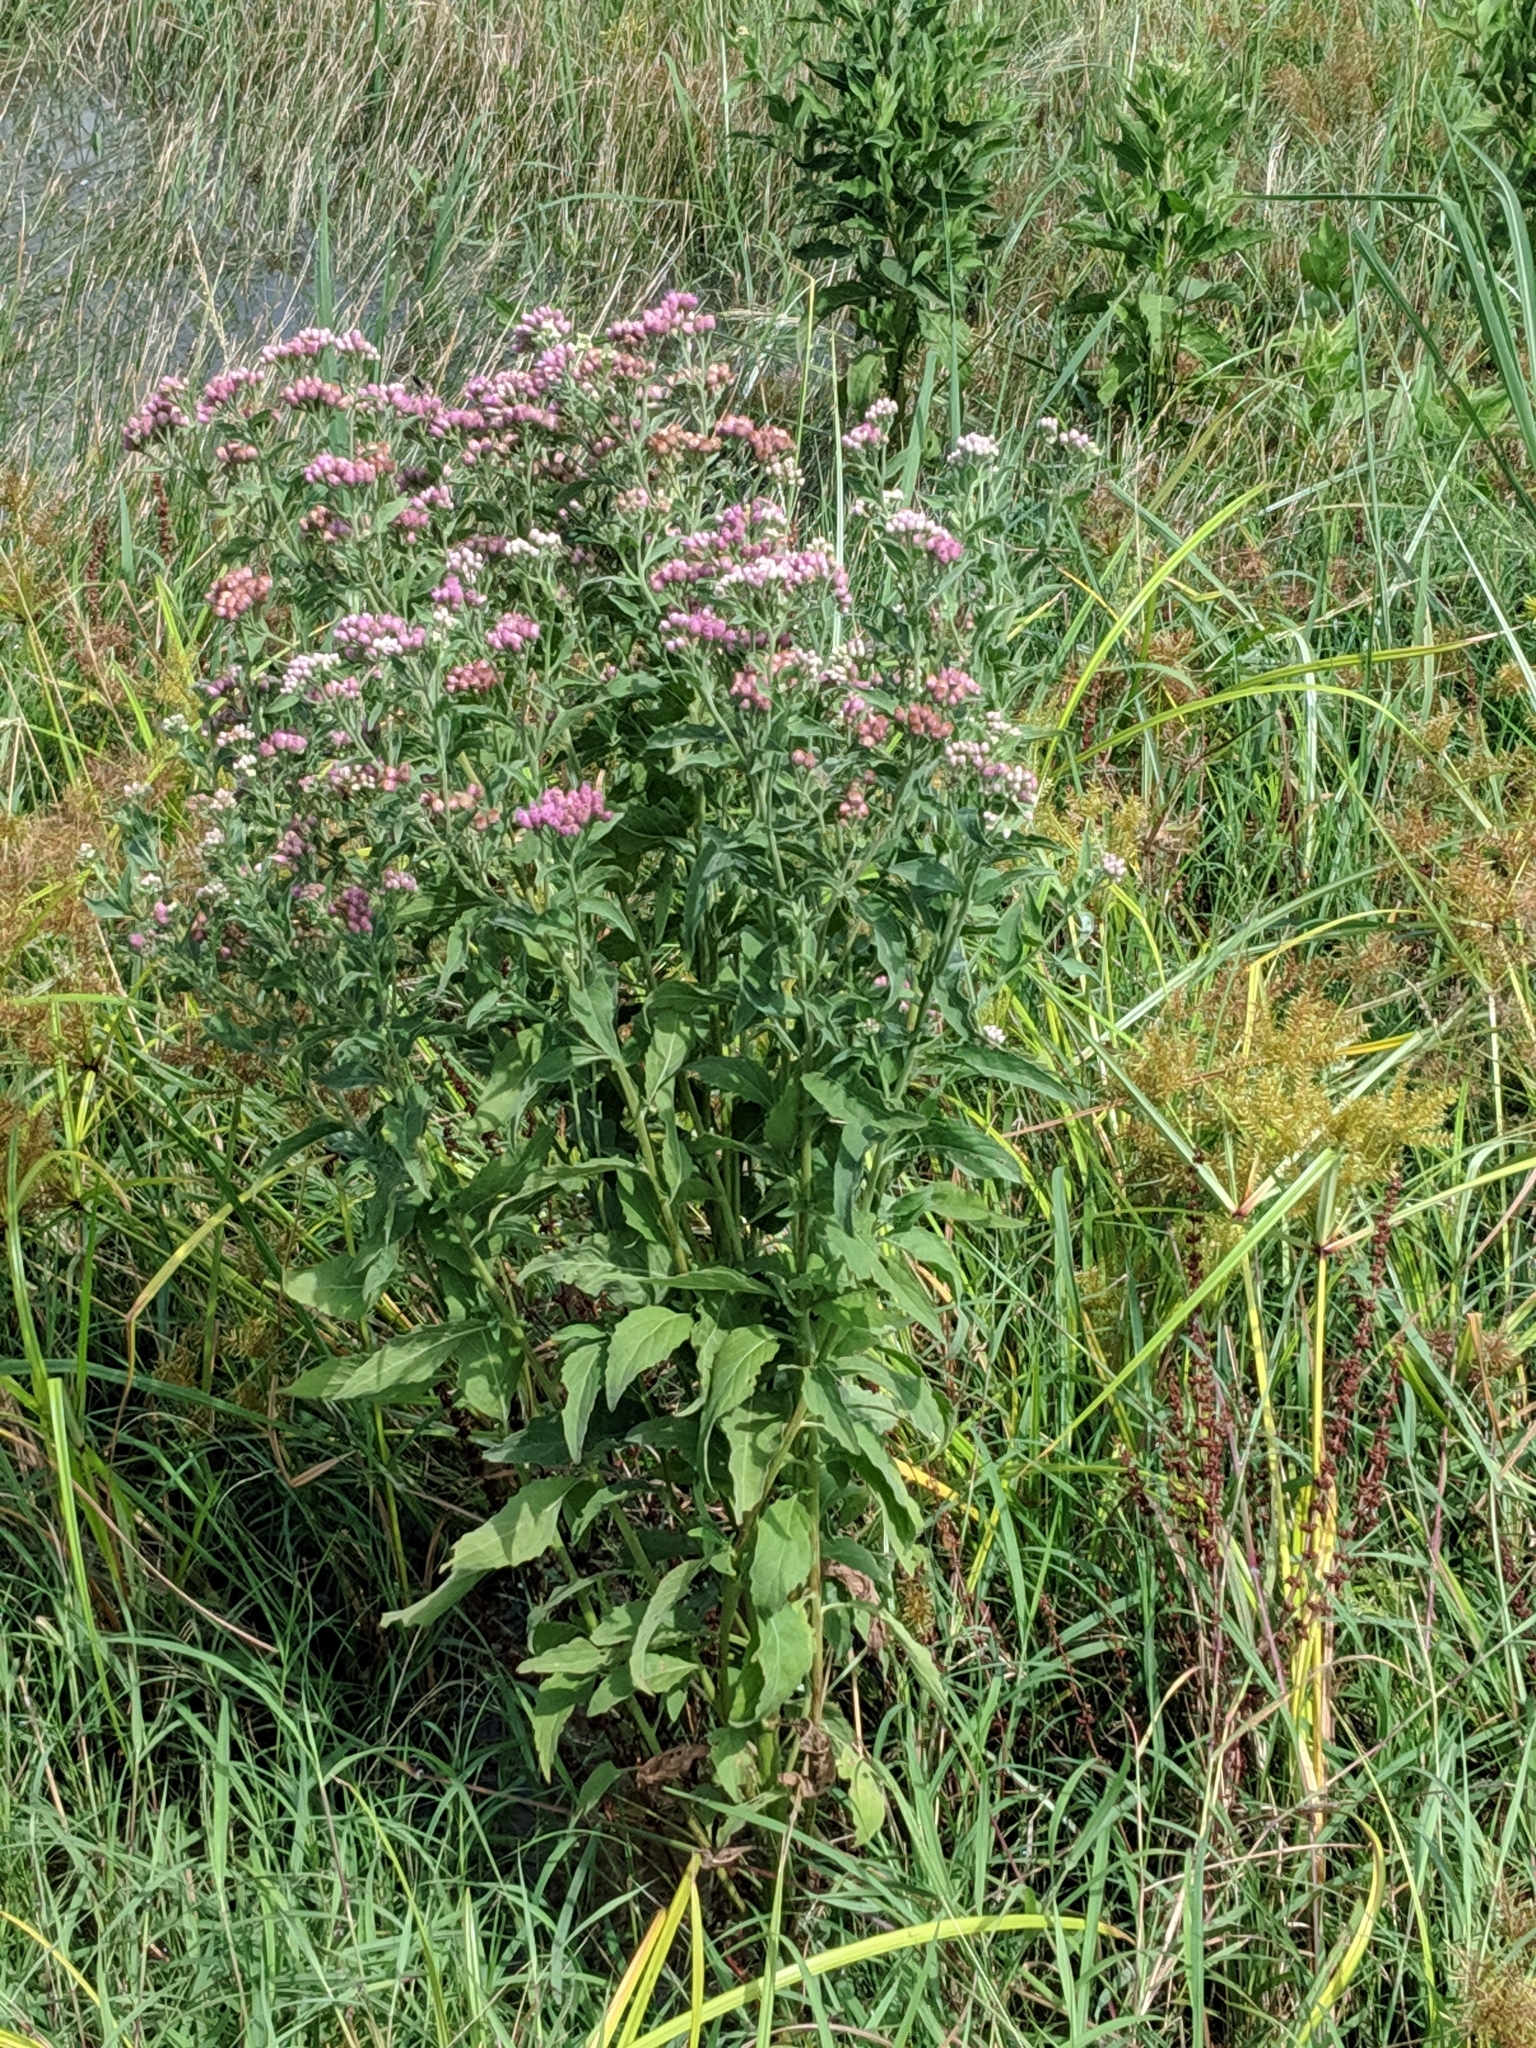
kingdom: Plantae
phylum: Tracheophyta
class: Magnoliopsida
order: Asterales
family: Asteraceae
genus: Pluchea
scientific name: Pluchea odorata
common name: Saltmarsh fleabane
